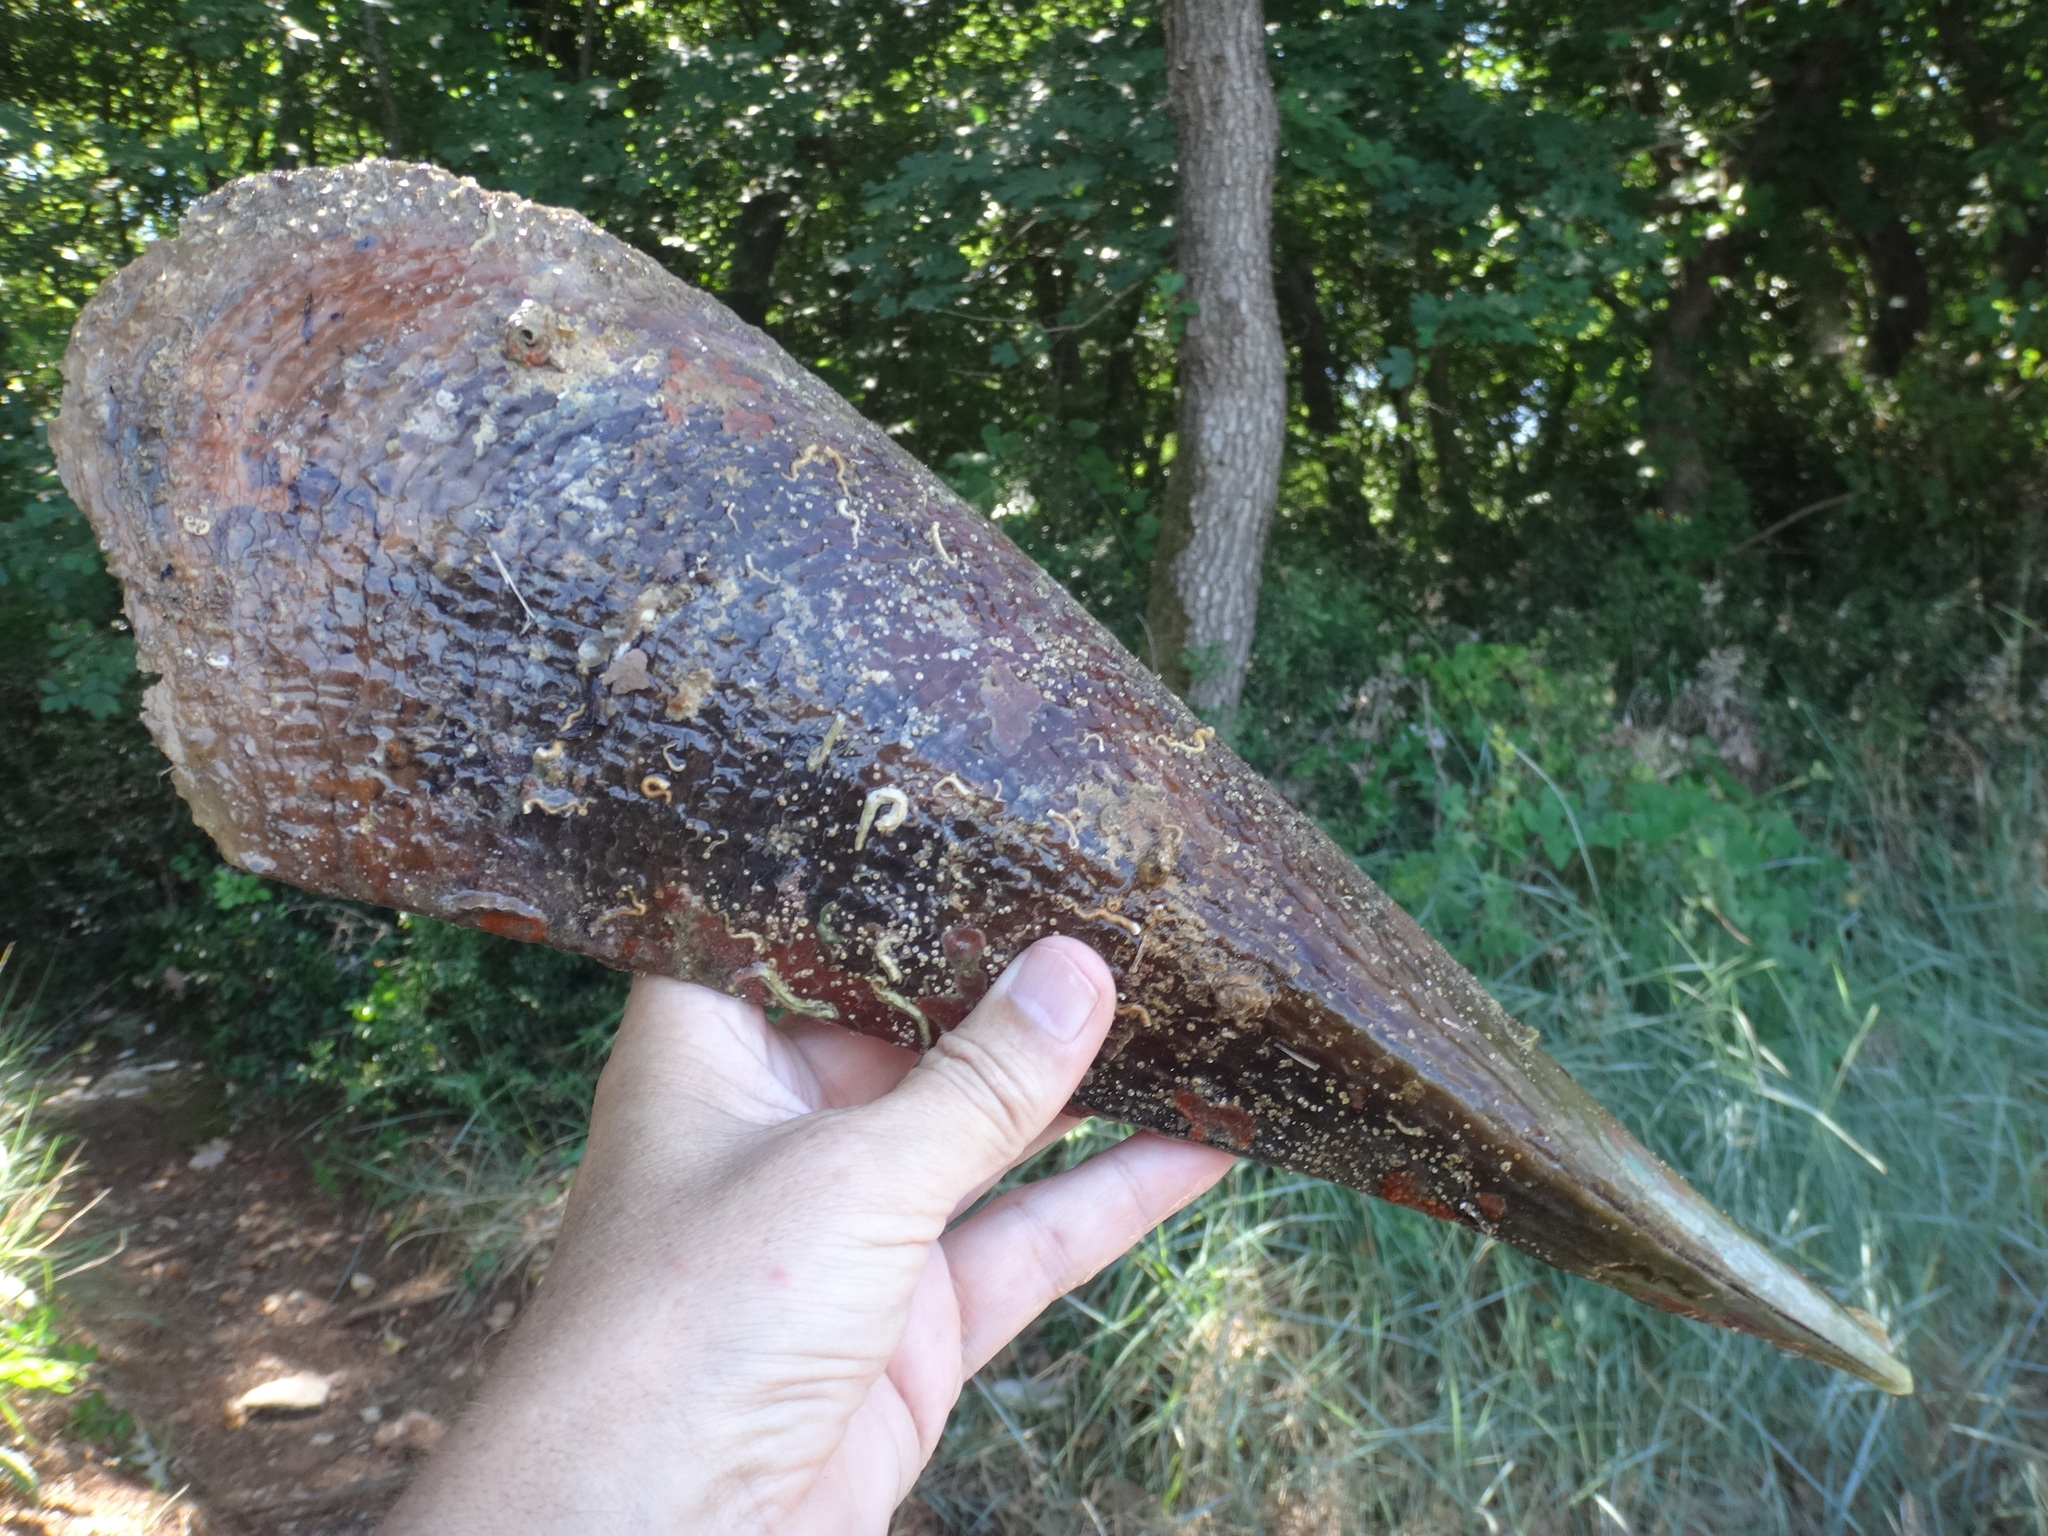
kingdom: Animalia
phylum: Mollusca
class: Bivalvia
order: Ostreida
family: Pinnidae
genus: Pinna
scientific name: Pinna nobilis
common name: Fan mussel
